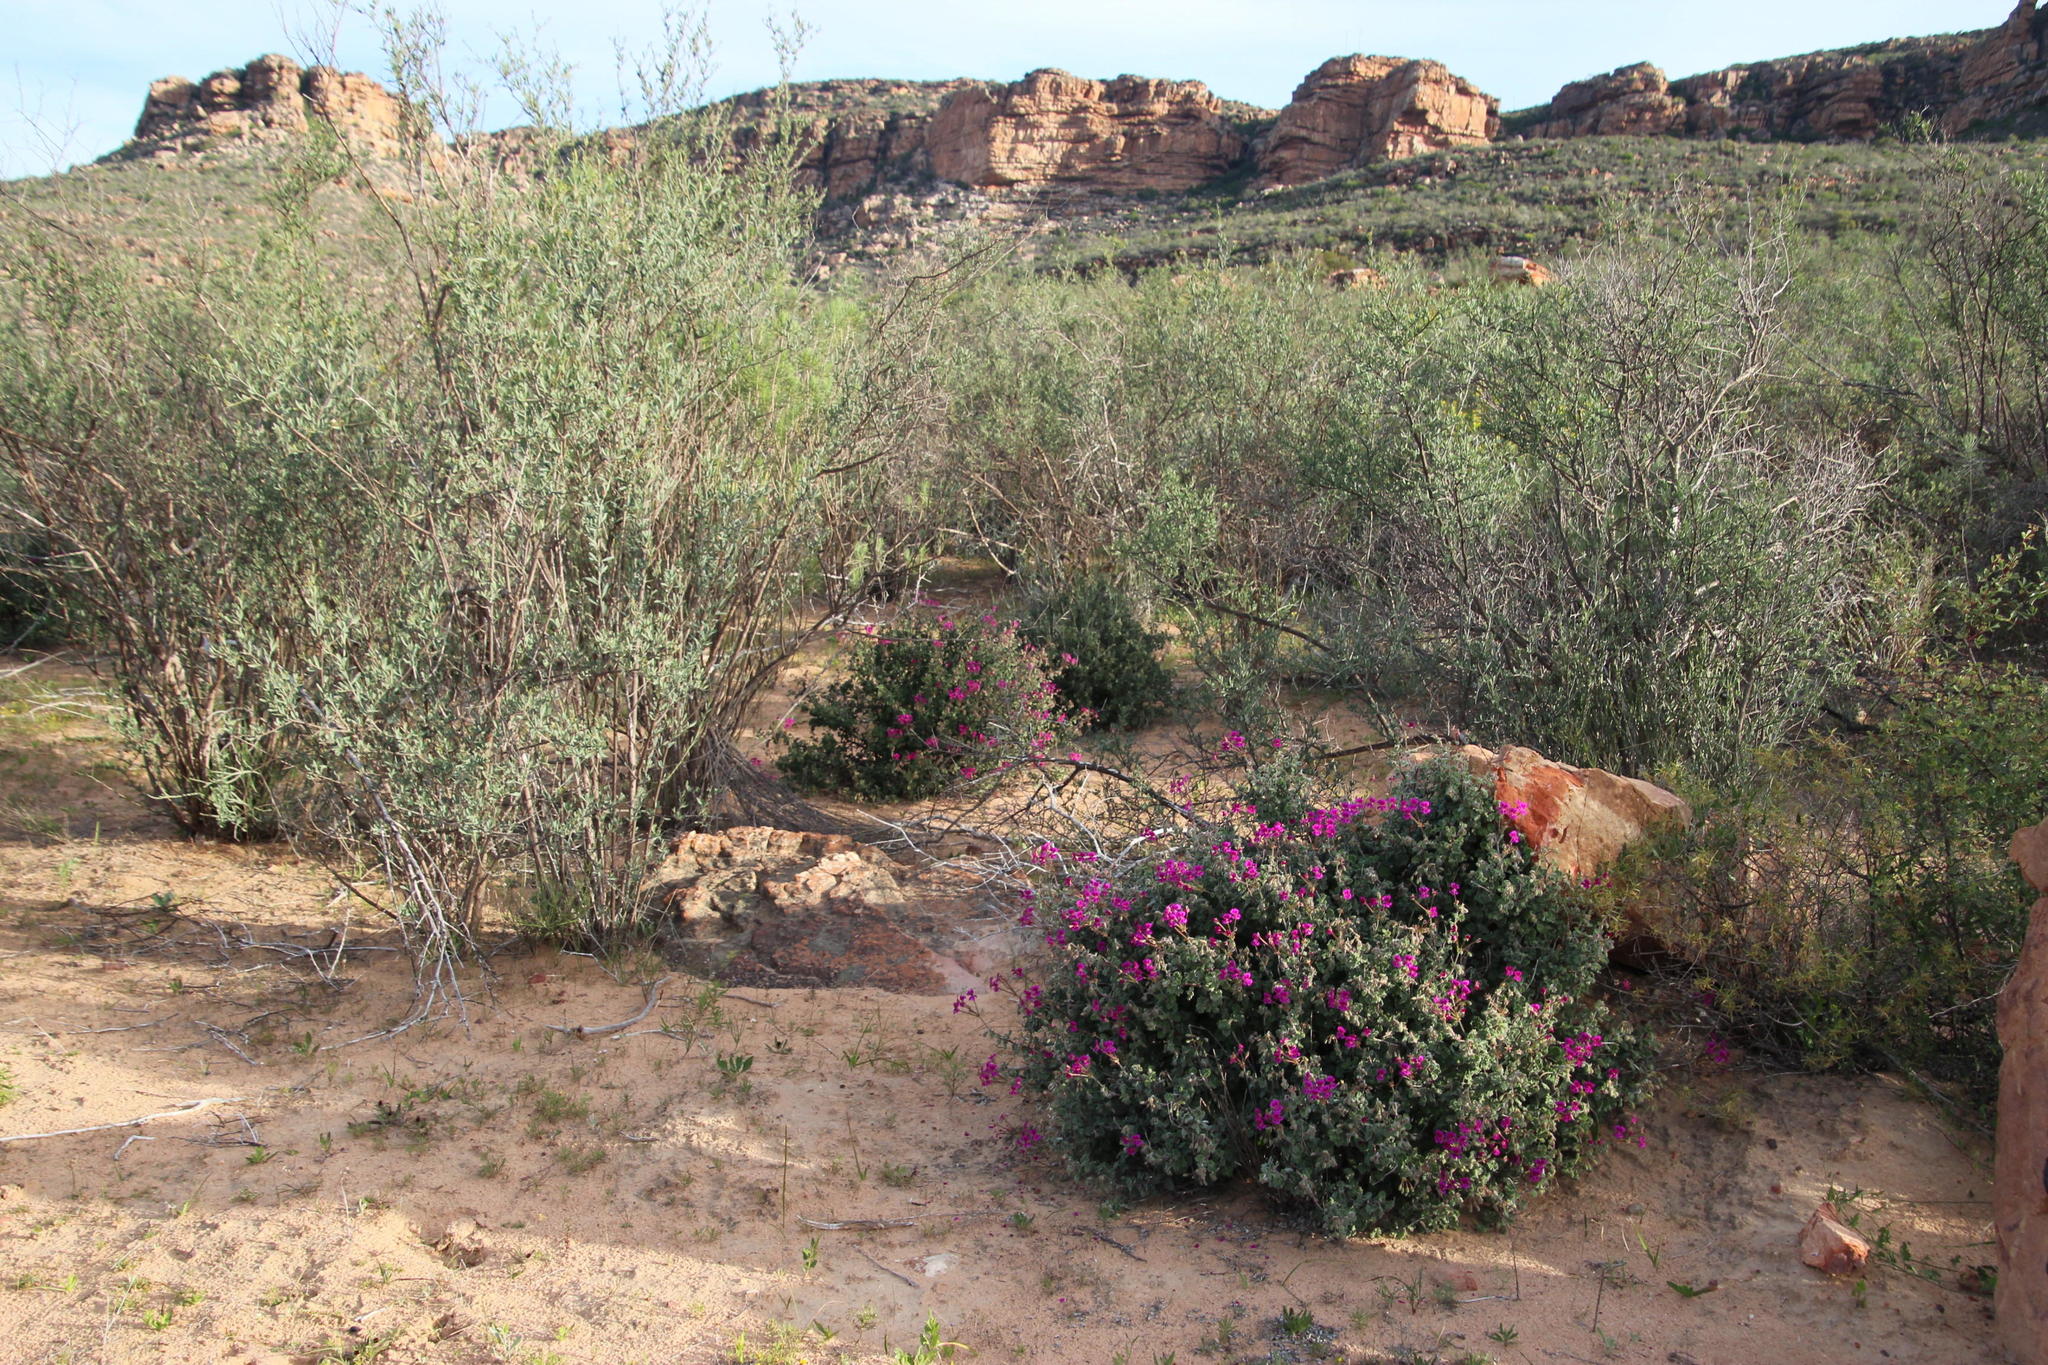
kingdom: Plantae
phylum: Tracheophyta
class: Magnoliopsida
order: Geraniales
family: Geraniaceae
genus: Pelargonium
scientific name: Pelargonium magenteum
